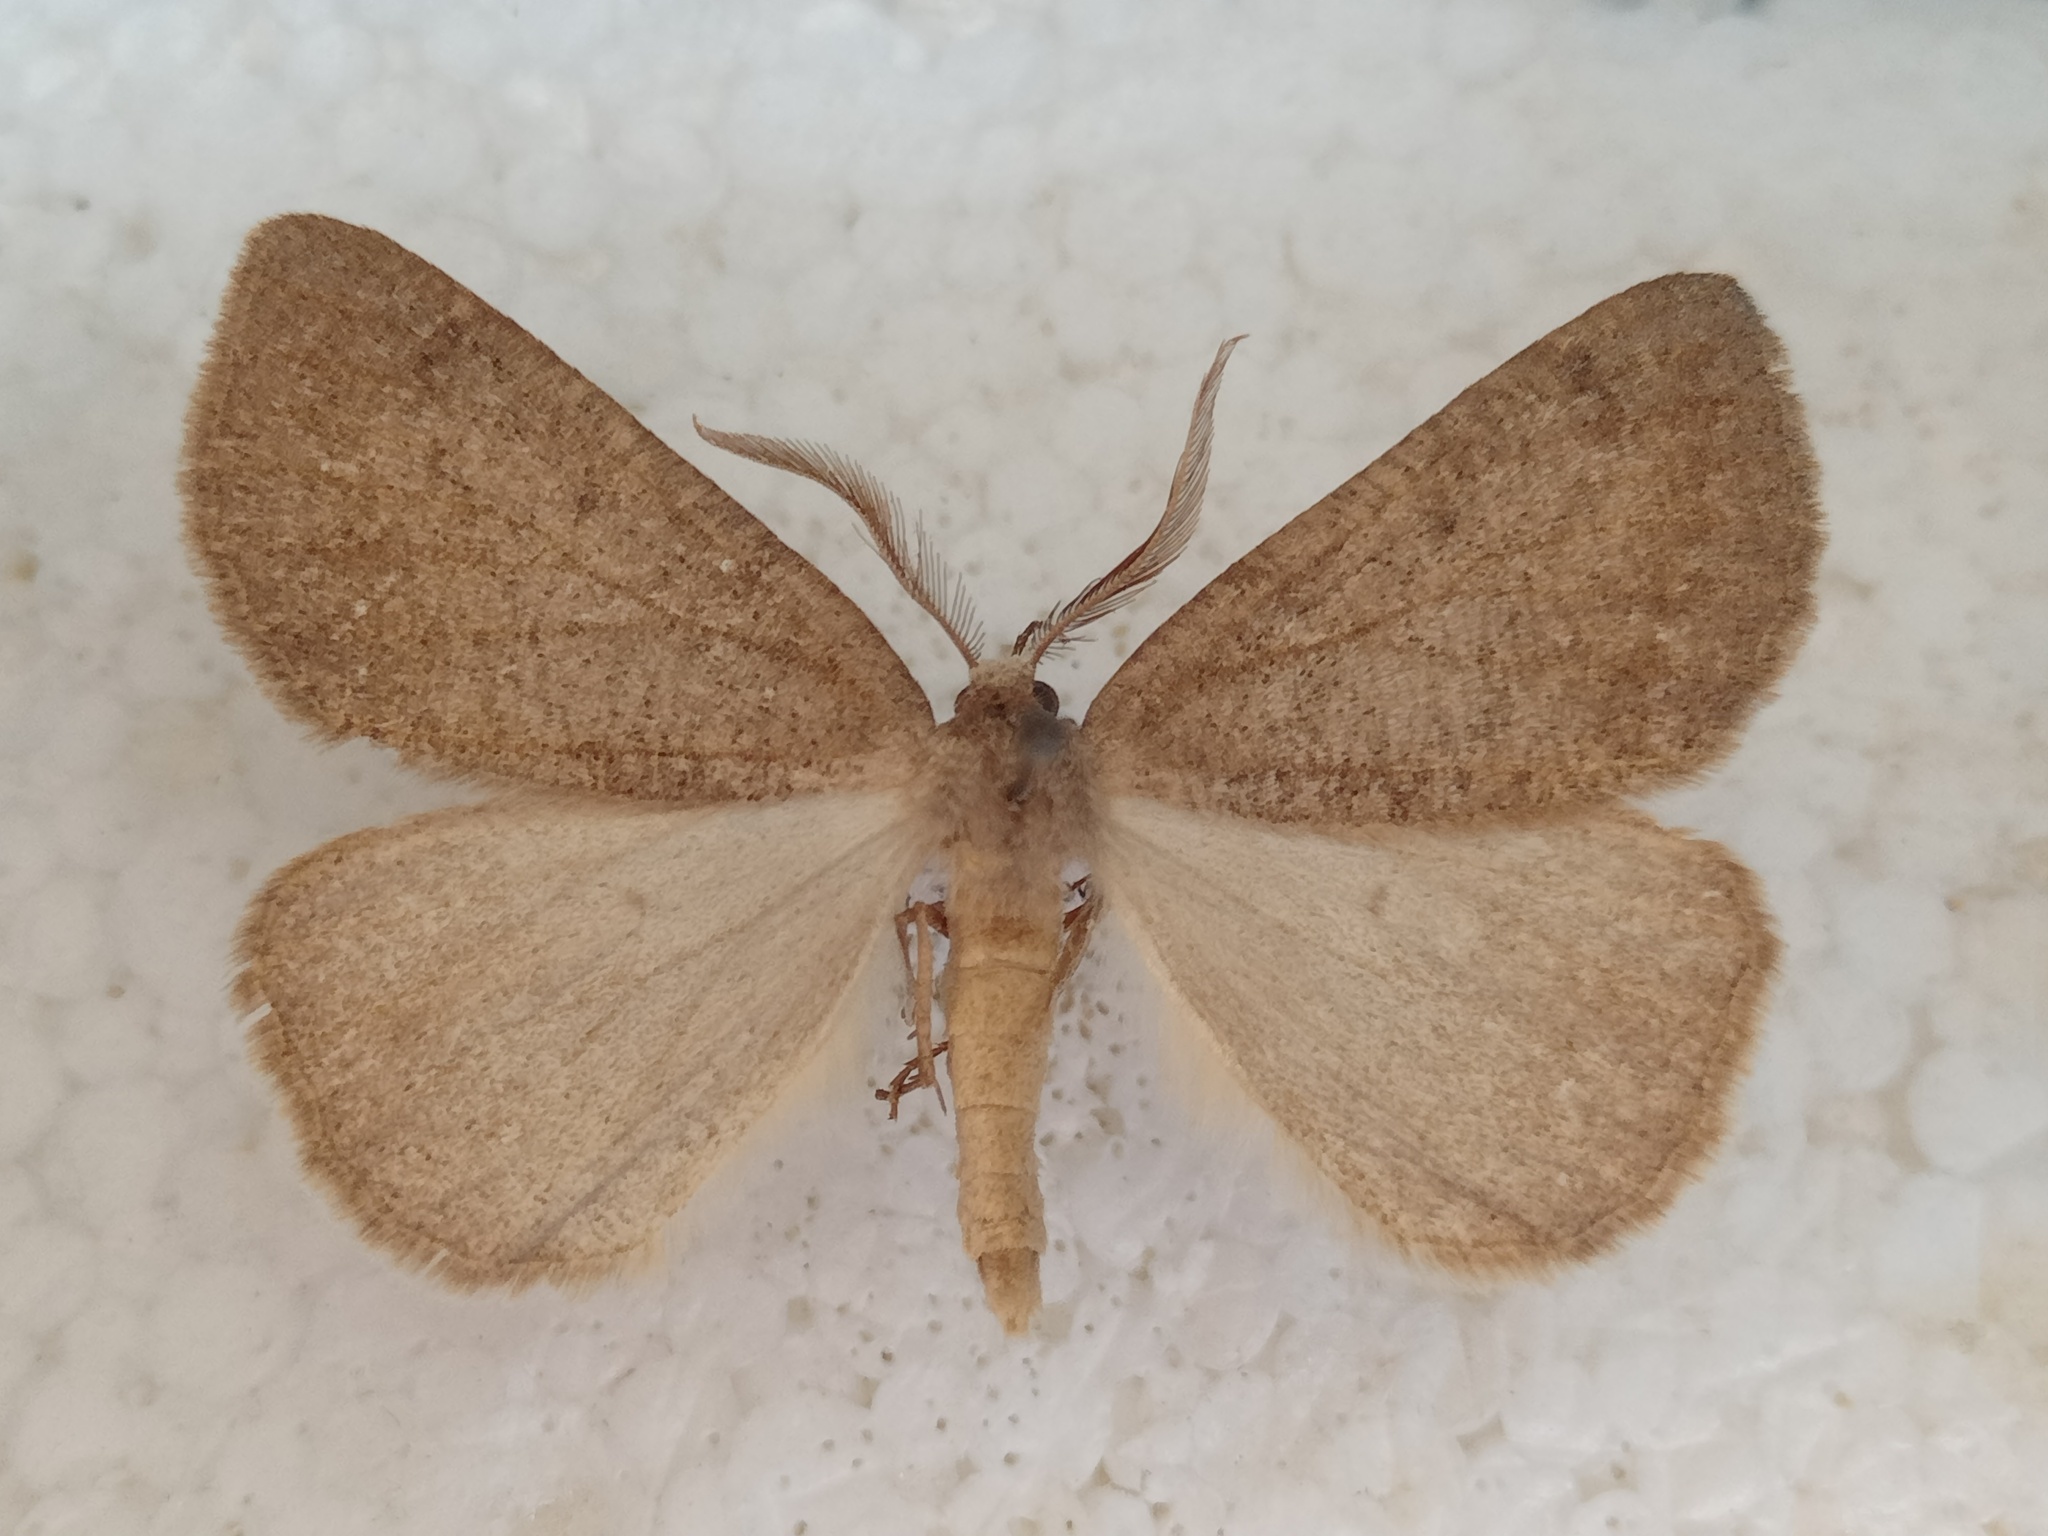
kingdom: Animalia
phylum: Arthropoda
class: Insecta
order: Lepidoptera
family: Geometridae
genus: Onychora
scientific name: Onychora agaritharia
